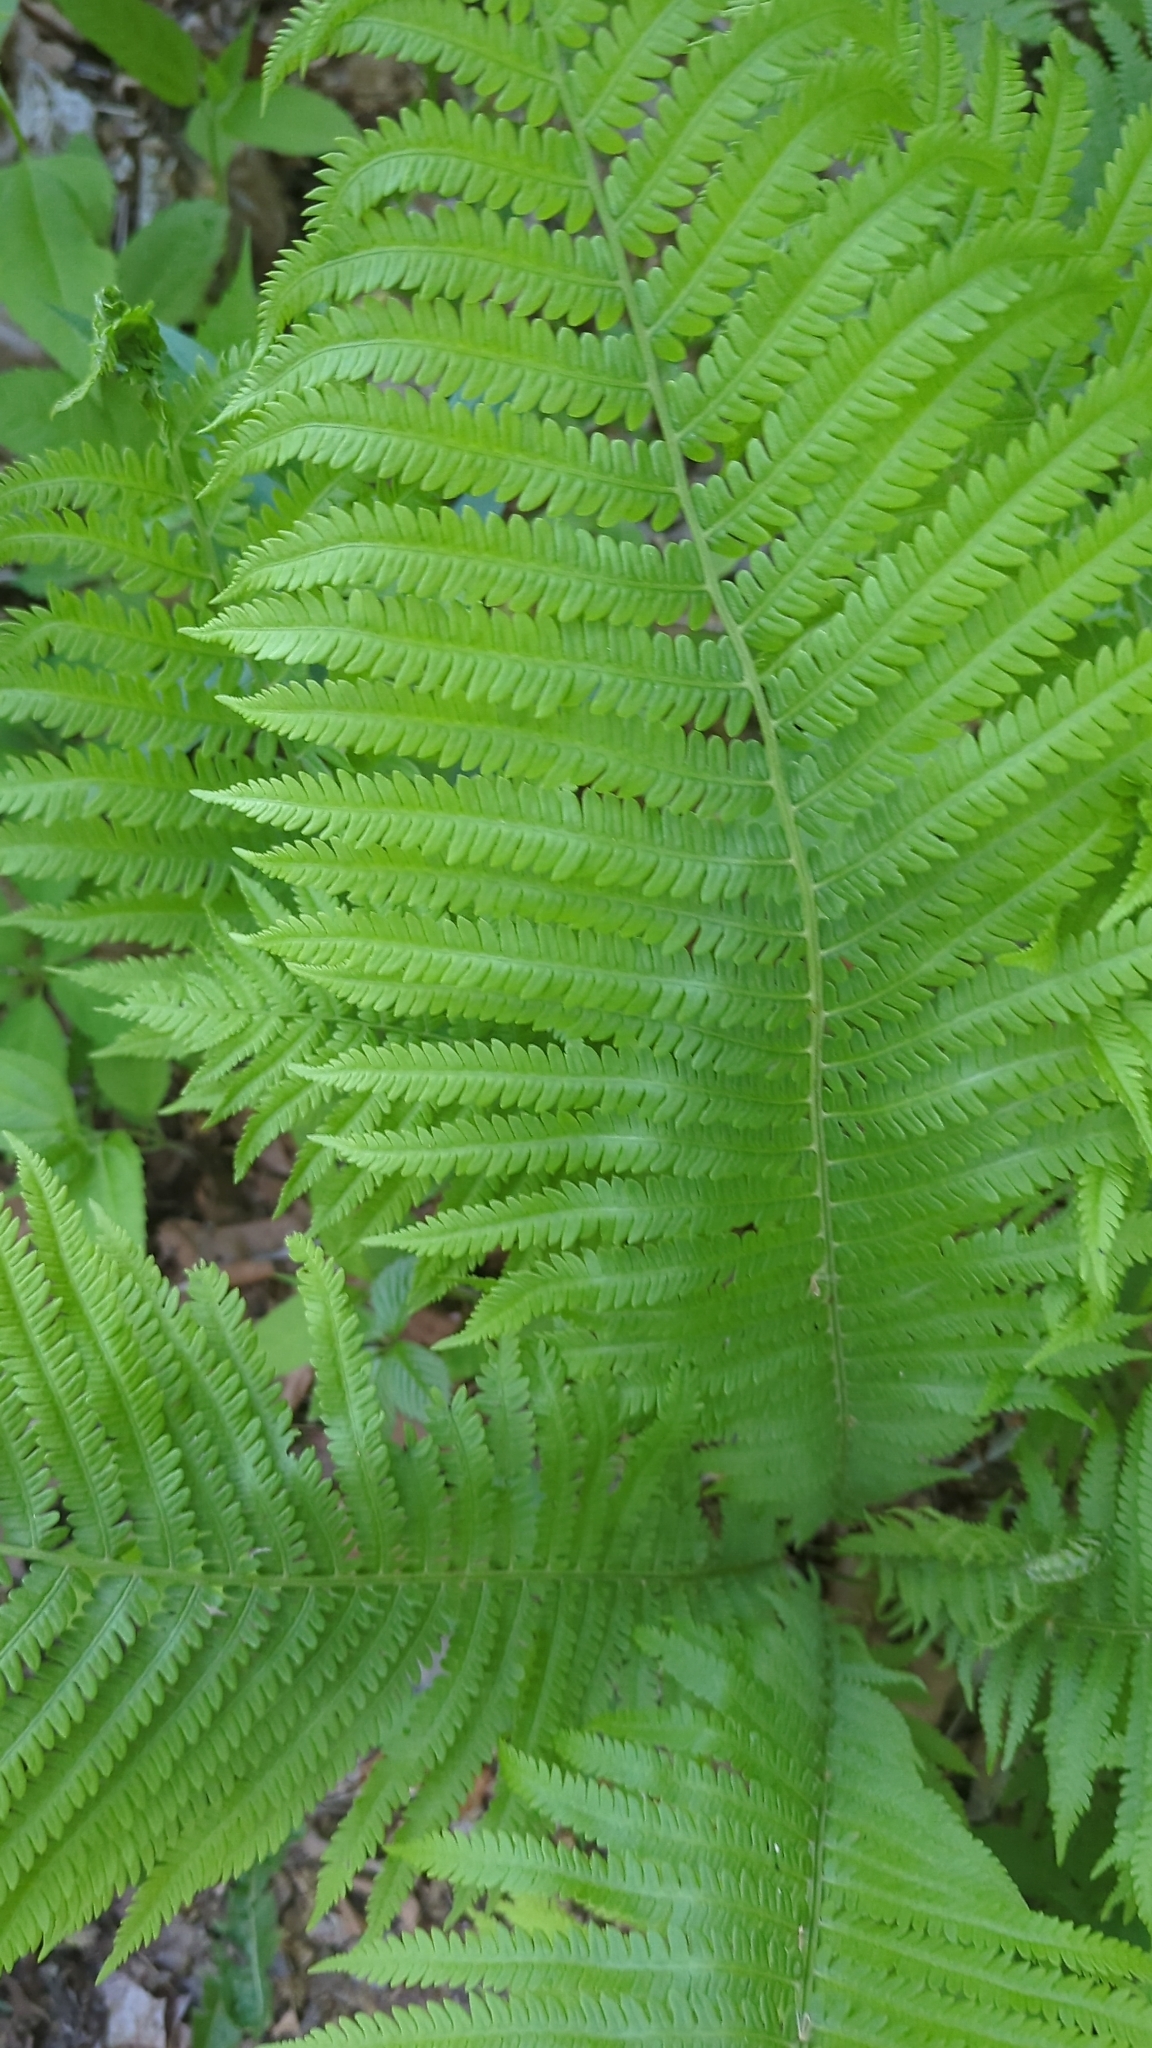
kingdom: Plantae
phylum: Tracheophyta
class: Polypodiopsida
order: Polypodiales
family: Onocleaceae
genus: Matteuccia
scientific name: Matteuccia struthiopteris
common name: Ostrich fern
